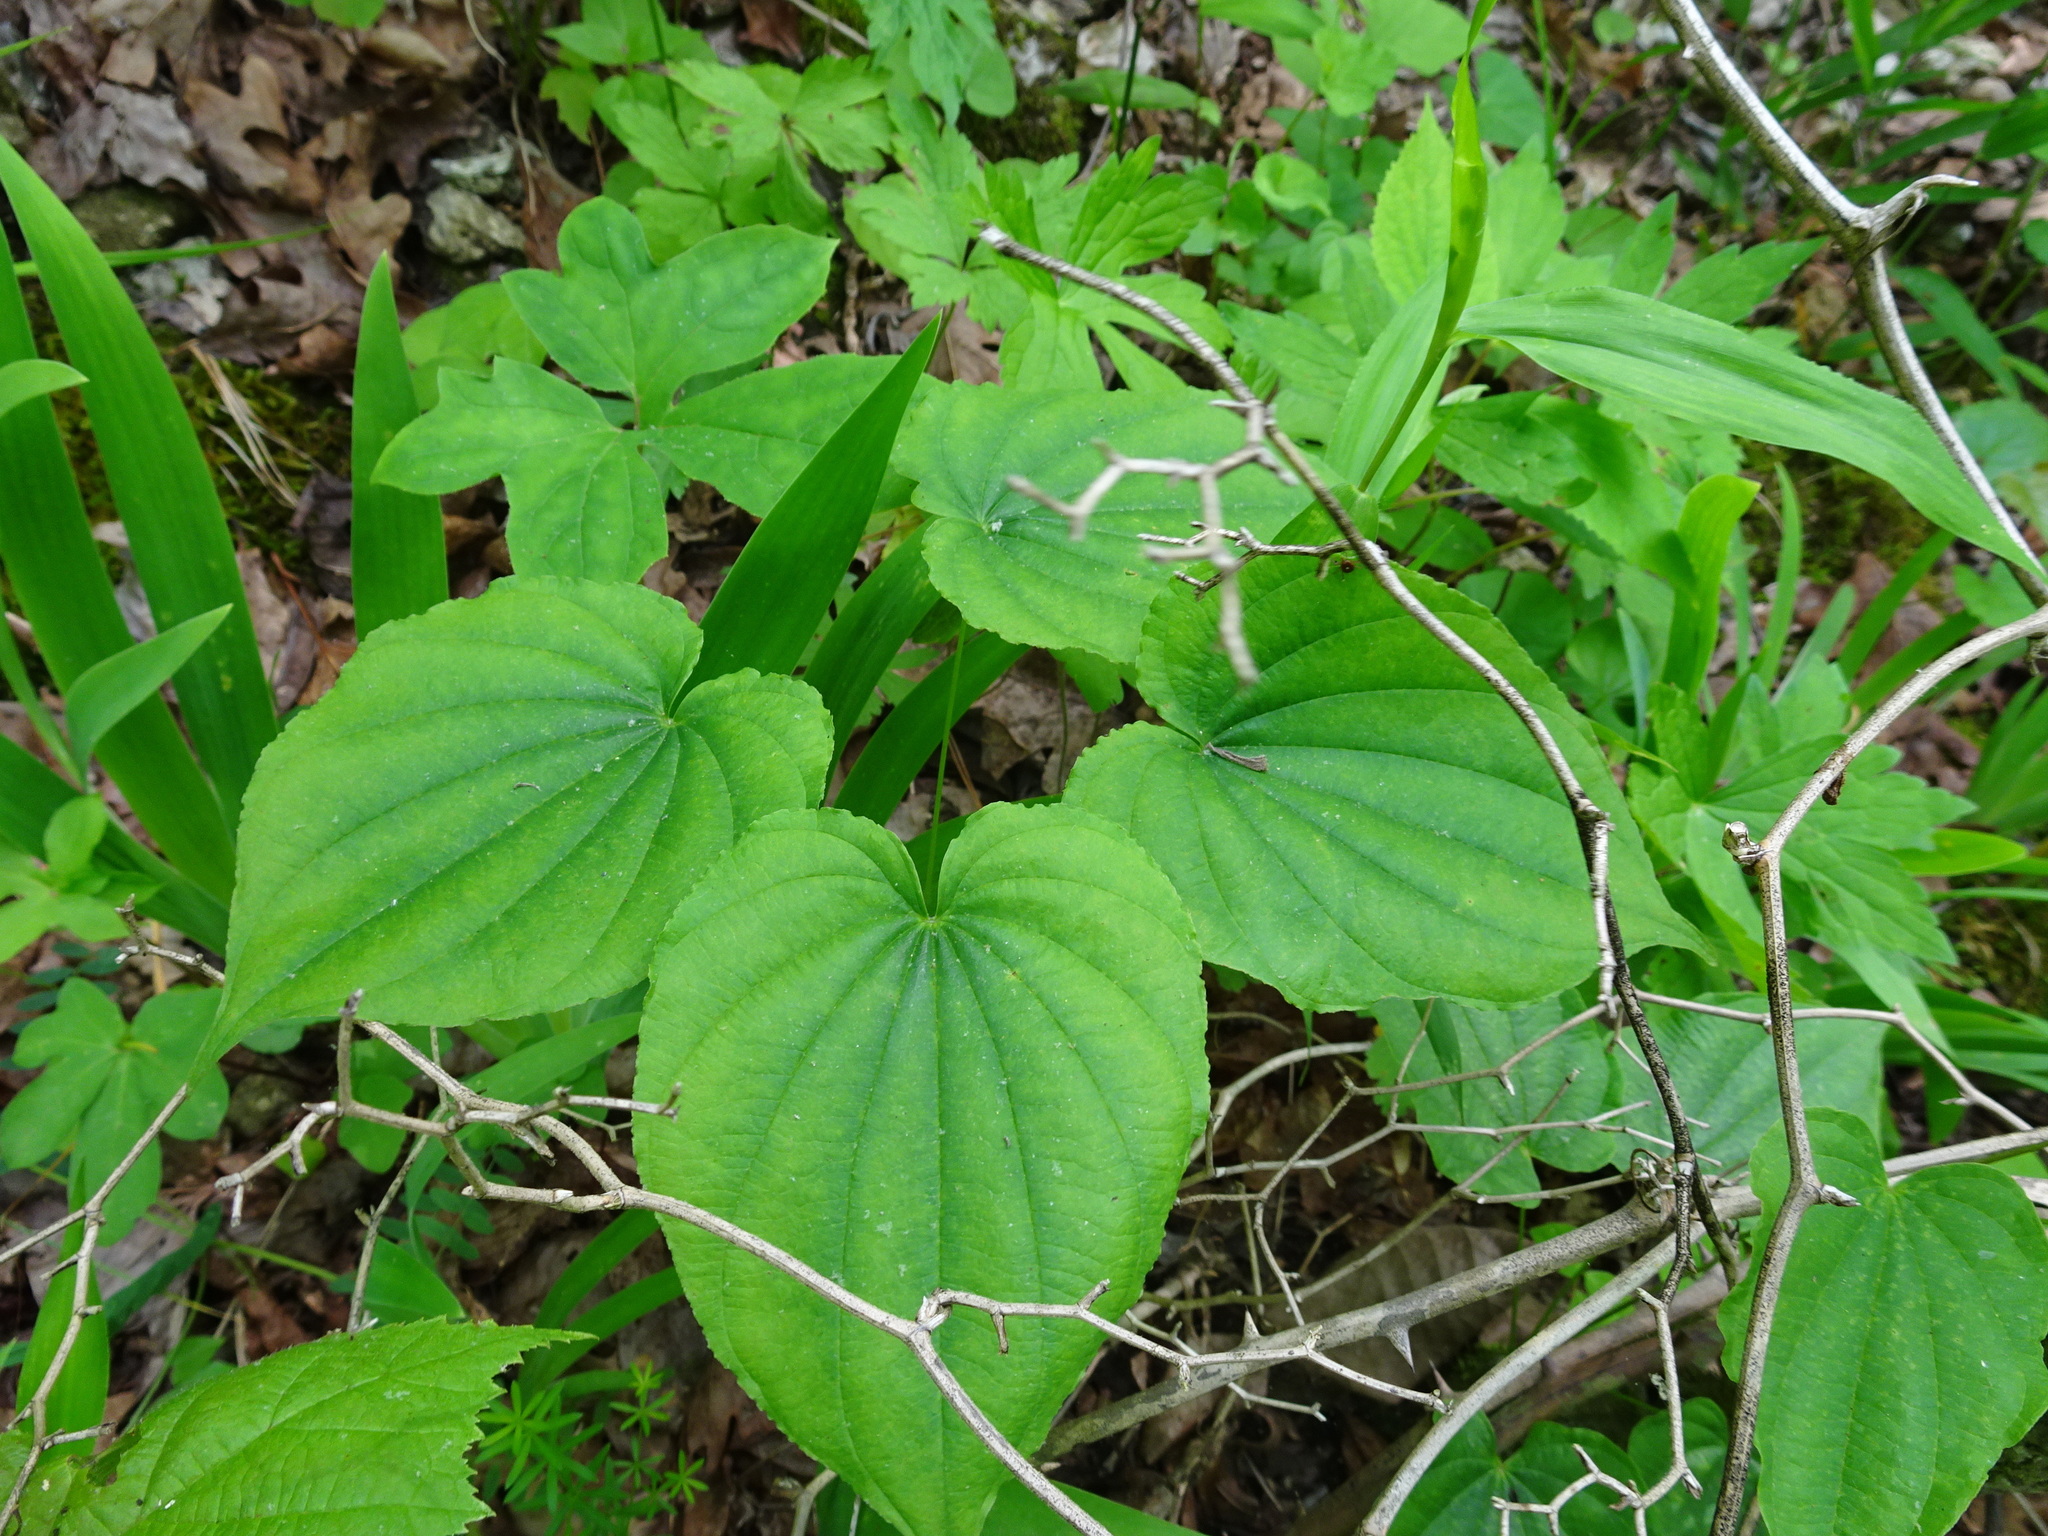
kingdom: Plantae
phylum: Tracheophyta
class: Liliopsida
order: Dioscoreales
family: Dioscoreaceae
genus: Dioscorea
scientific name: Dioscorea villosa
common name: Wild yam
